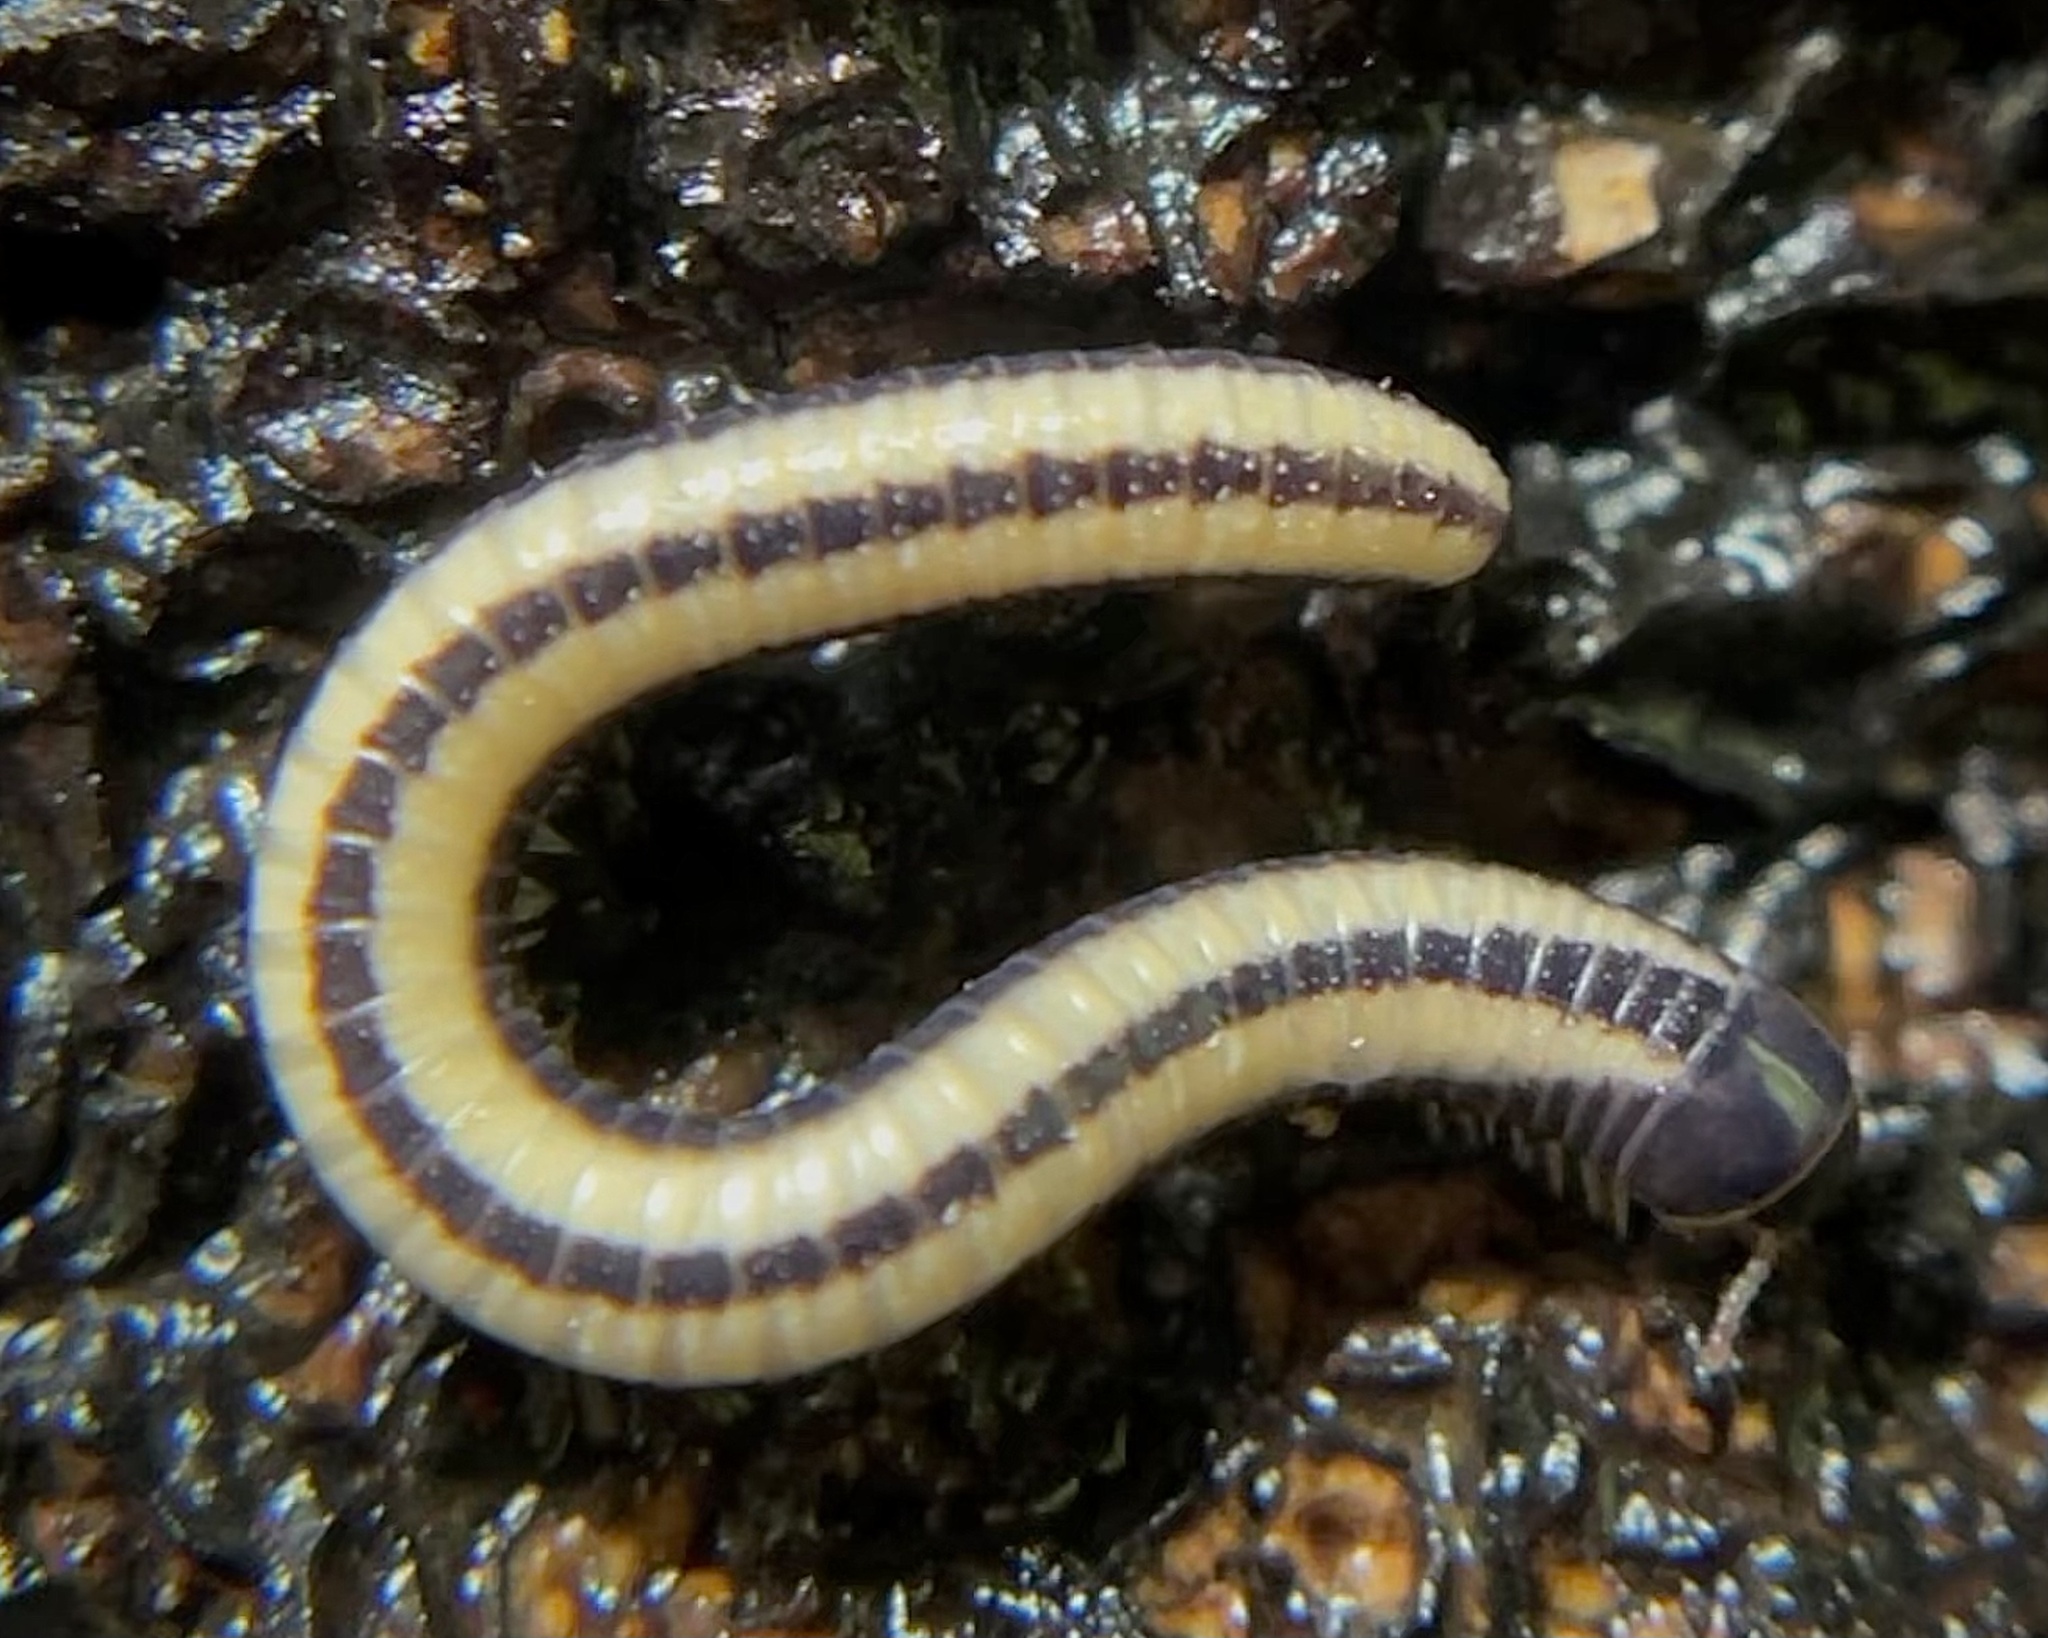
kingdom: Animalia
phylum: Arthropoda
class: Diplopoda
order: Spirobolida
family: Spirobolellidae
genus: Spirobolellus
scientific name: Spirobolellus immigrans
